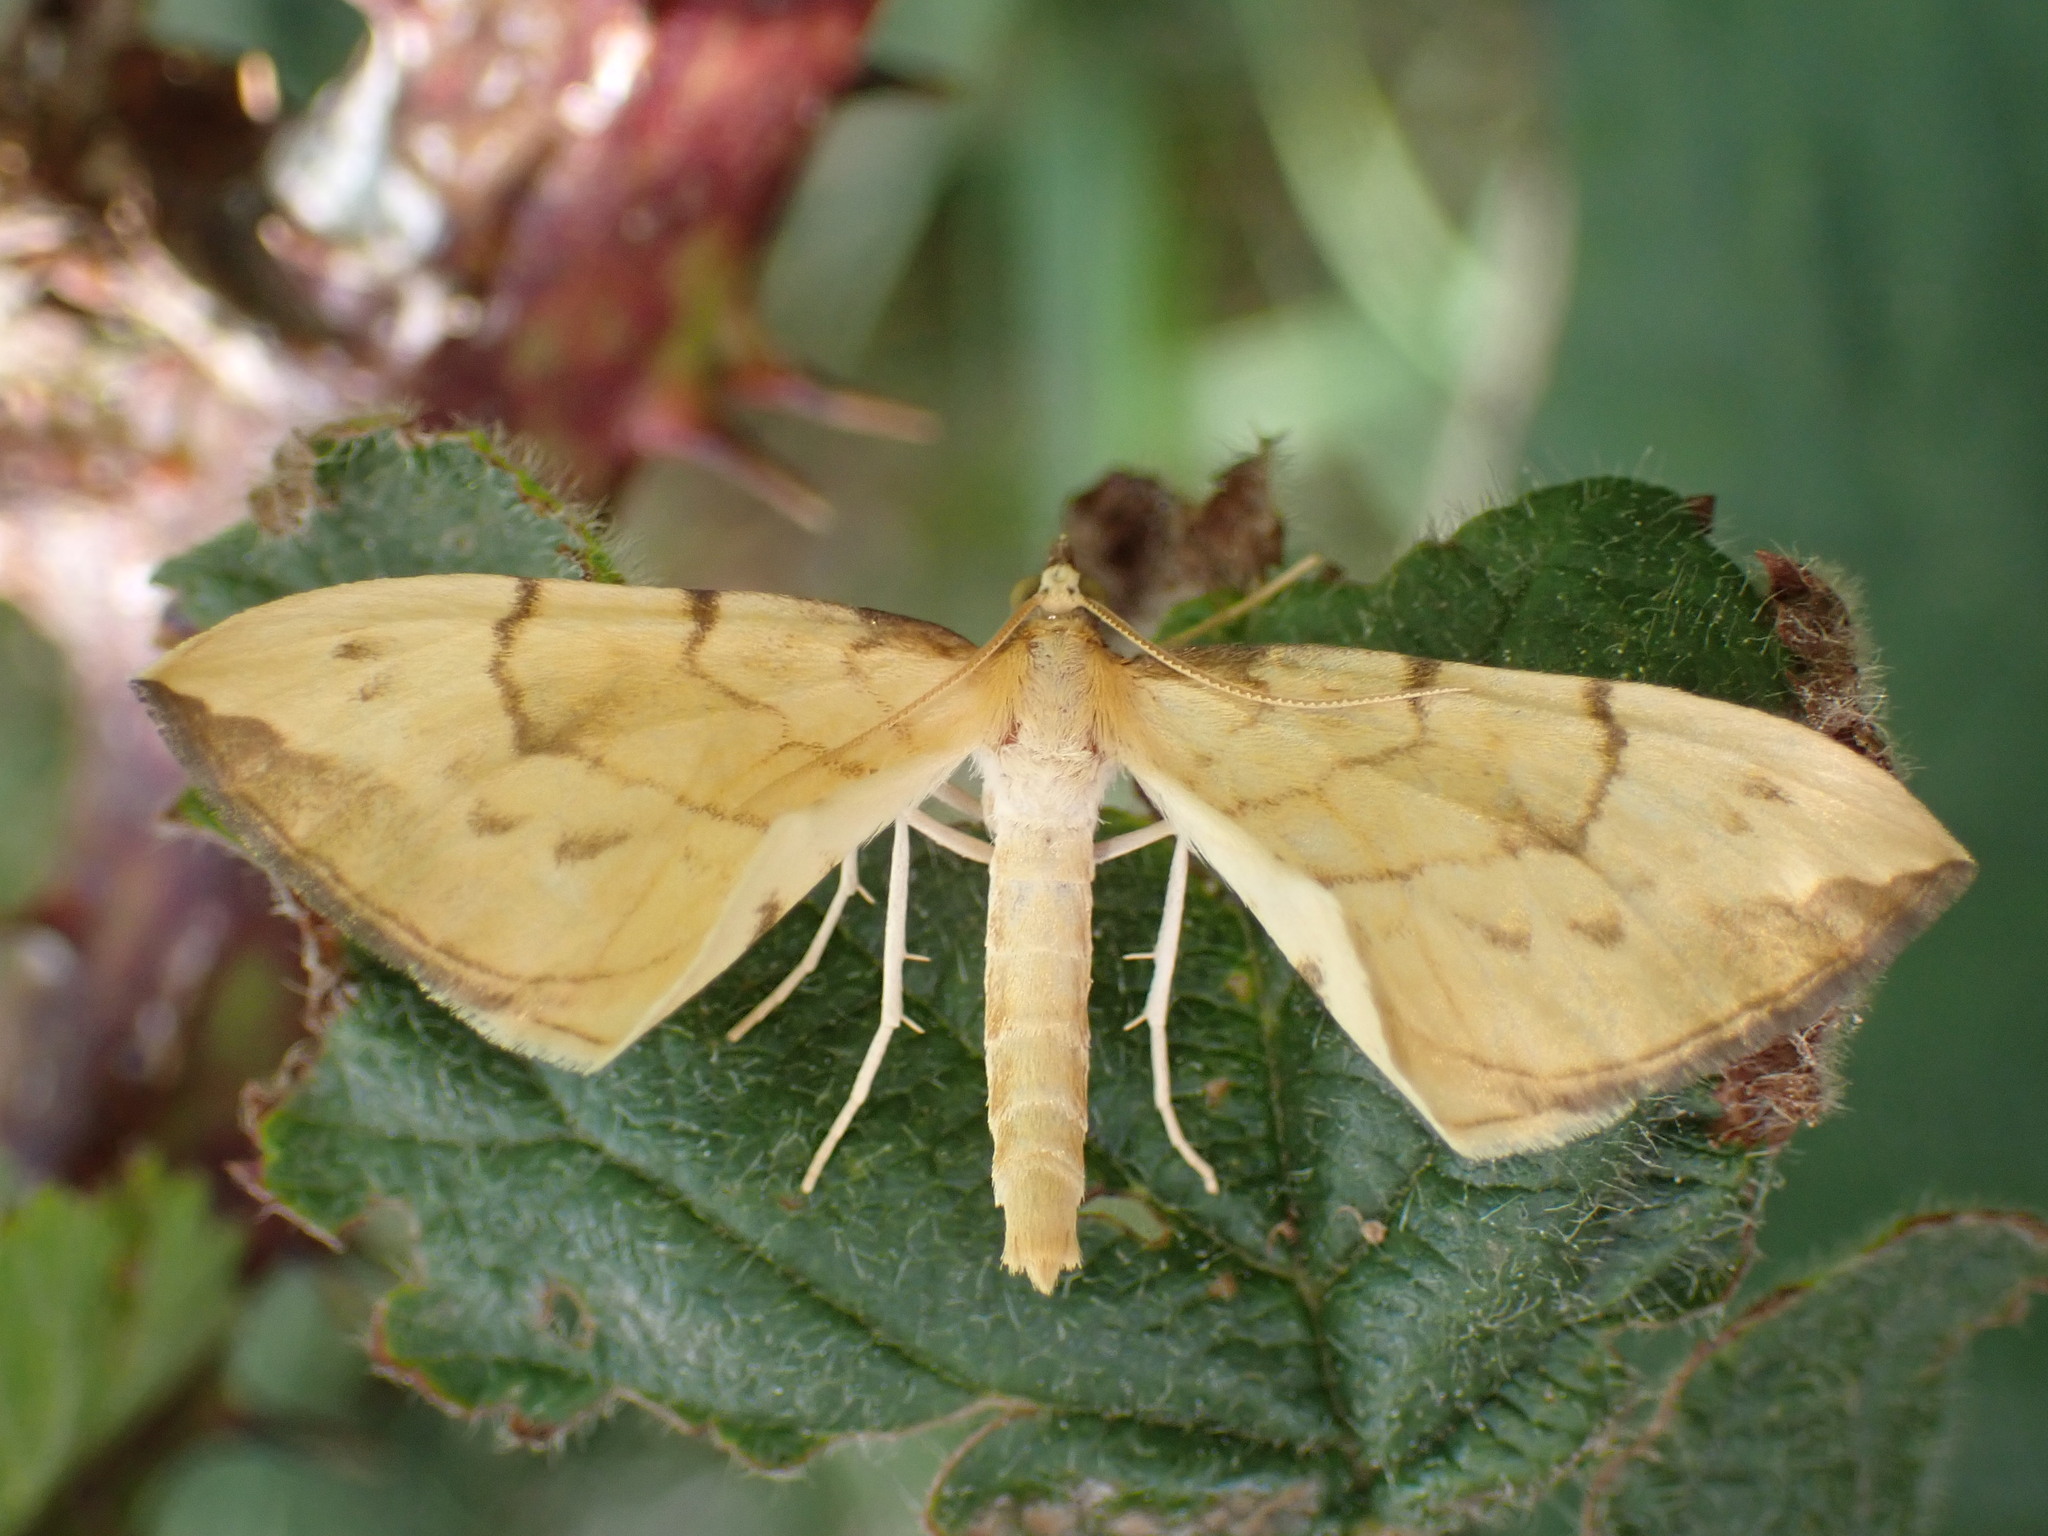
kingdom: Animalia
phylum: Arthropoda
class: Insecta
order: Lepidoptera
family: Geometridae
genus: Eulithis
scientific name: Eulithis pyraliata
